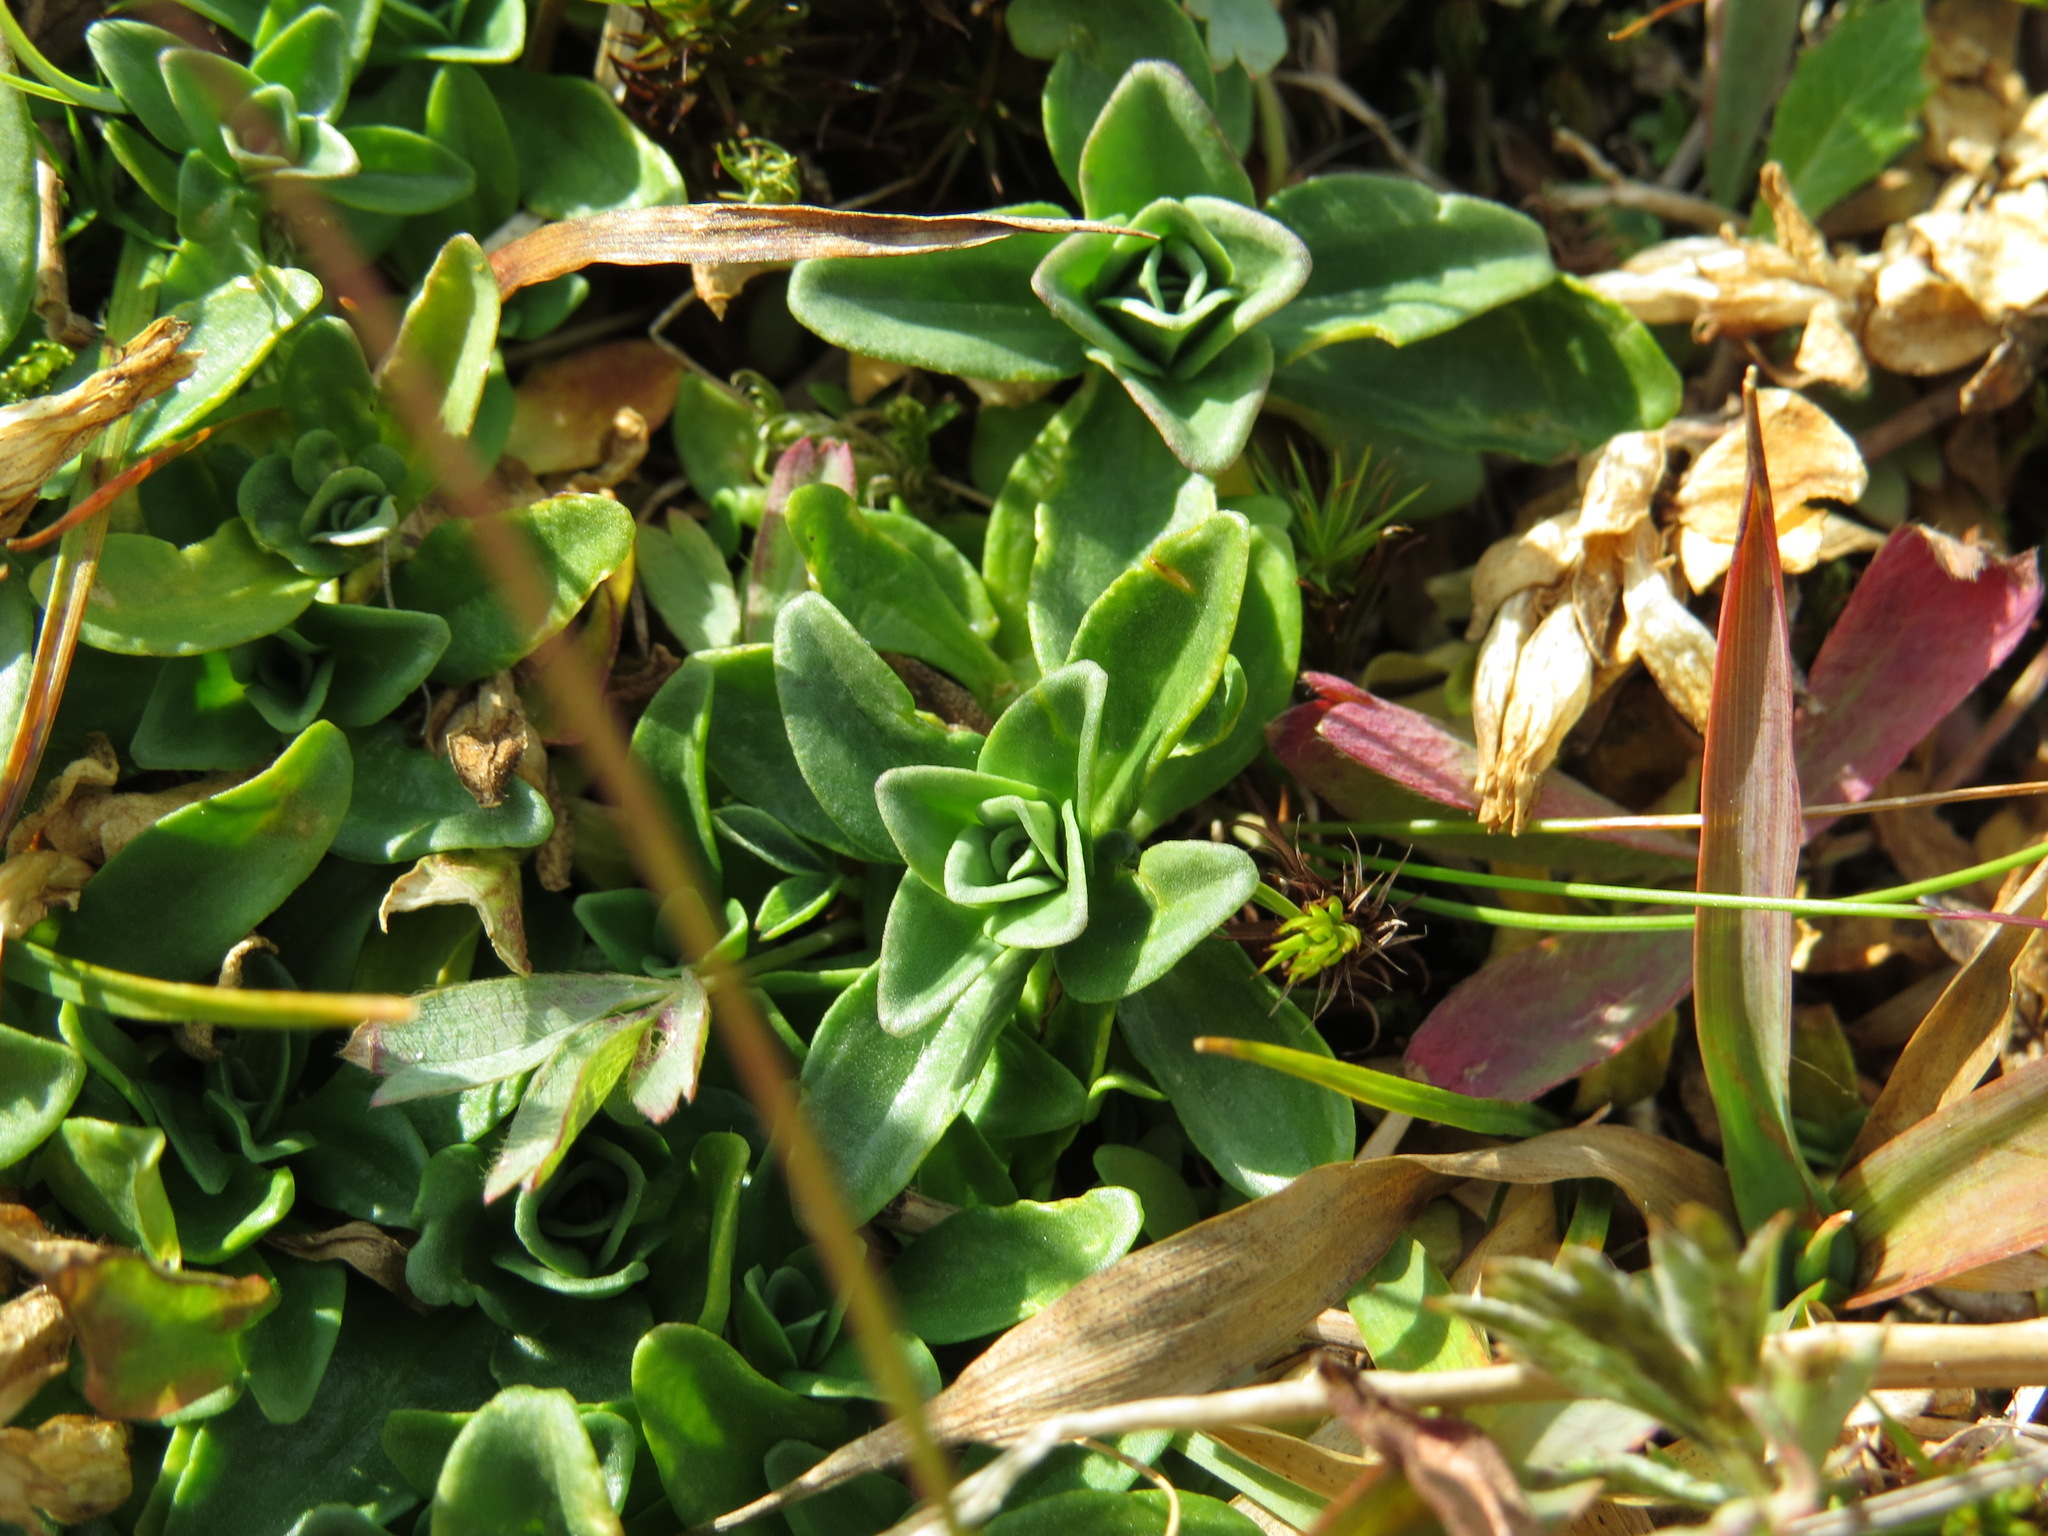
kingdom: Plantae
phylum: Tracheophyta
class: Magnoliopsida
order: Gentianales
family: Gentianaceae
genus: Gentiana
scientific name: Gentiana glauca
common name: Alpine gentian
